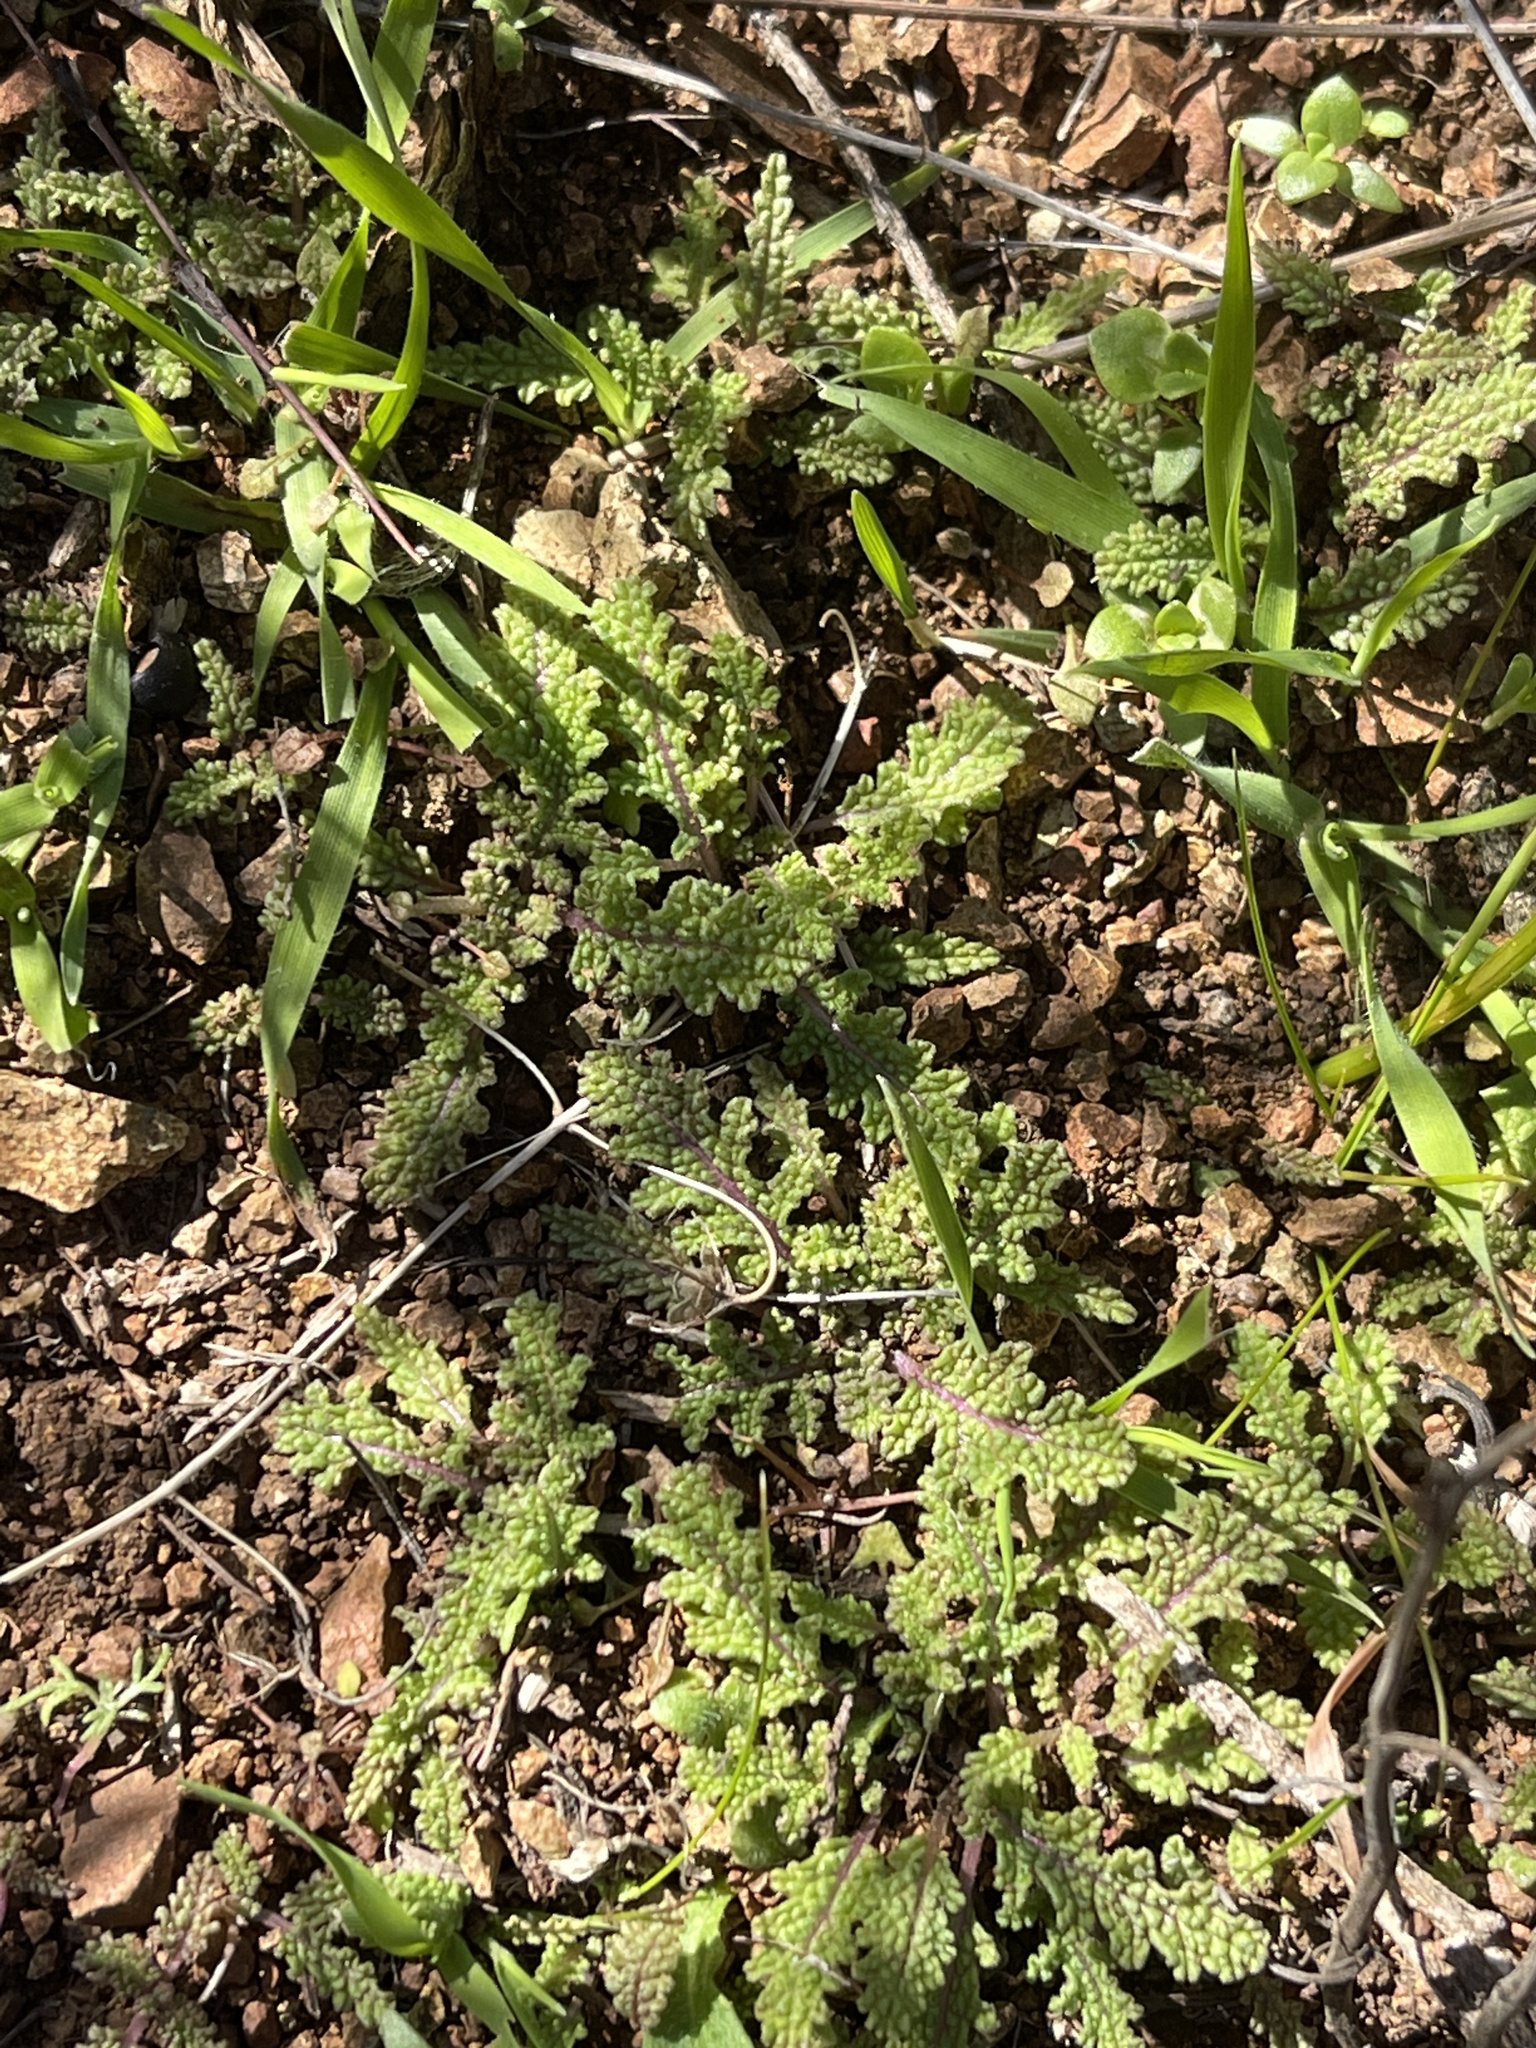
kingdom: Plantae
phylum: Tracheophyta
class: Magnoliopsida
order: Lamiales
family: Lamiaceae
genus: Salvia
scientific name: Salvia columbariae
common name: Chia
